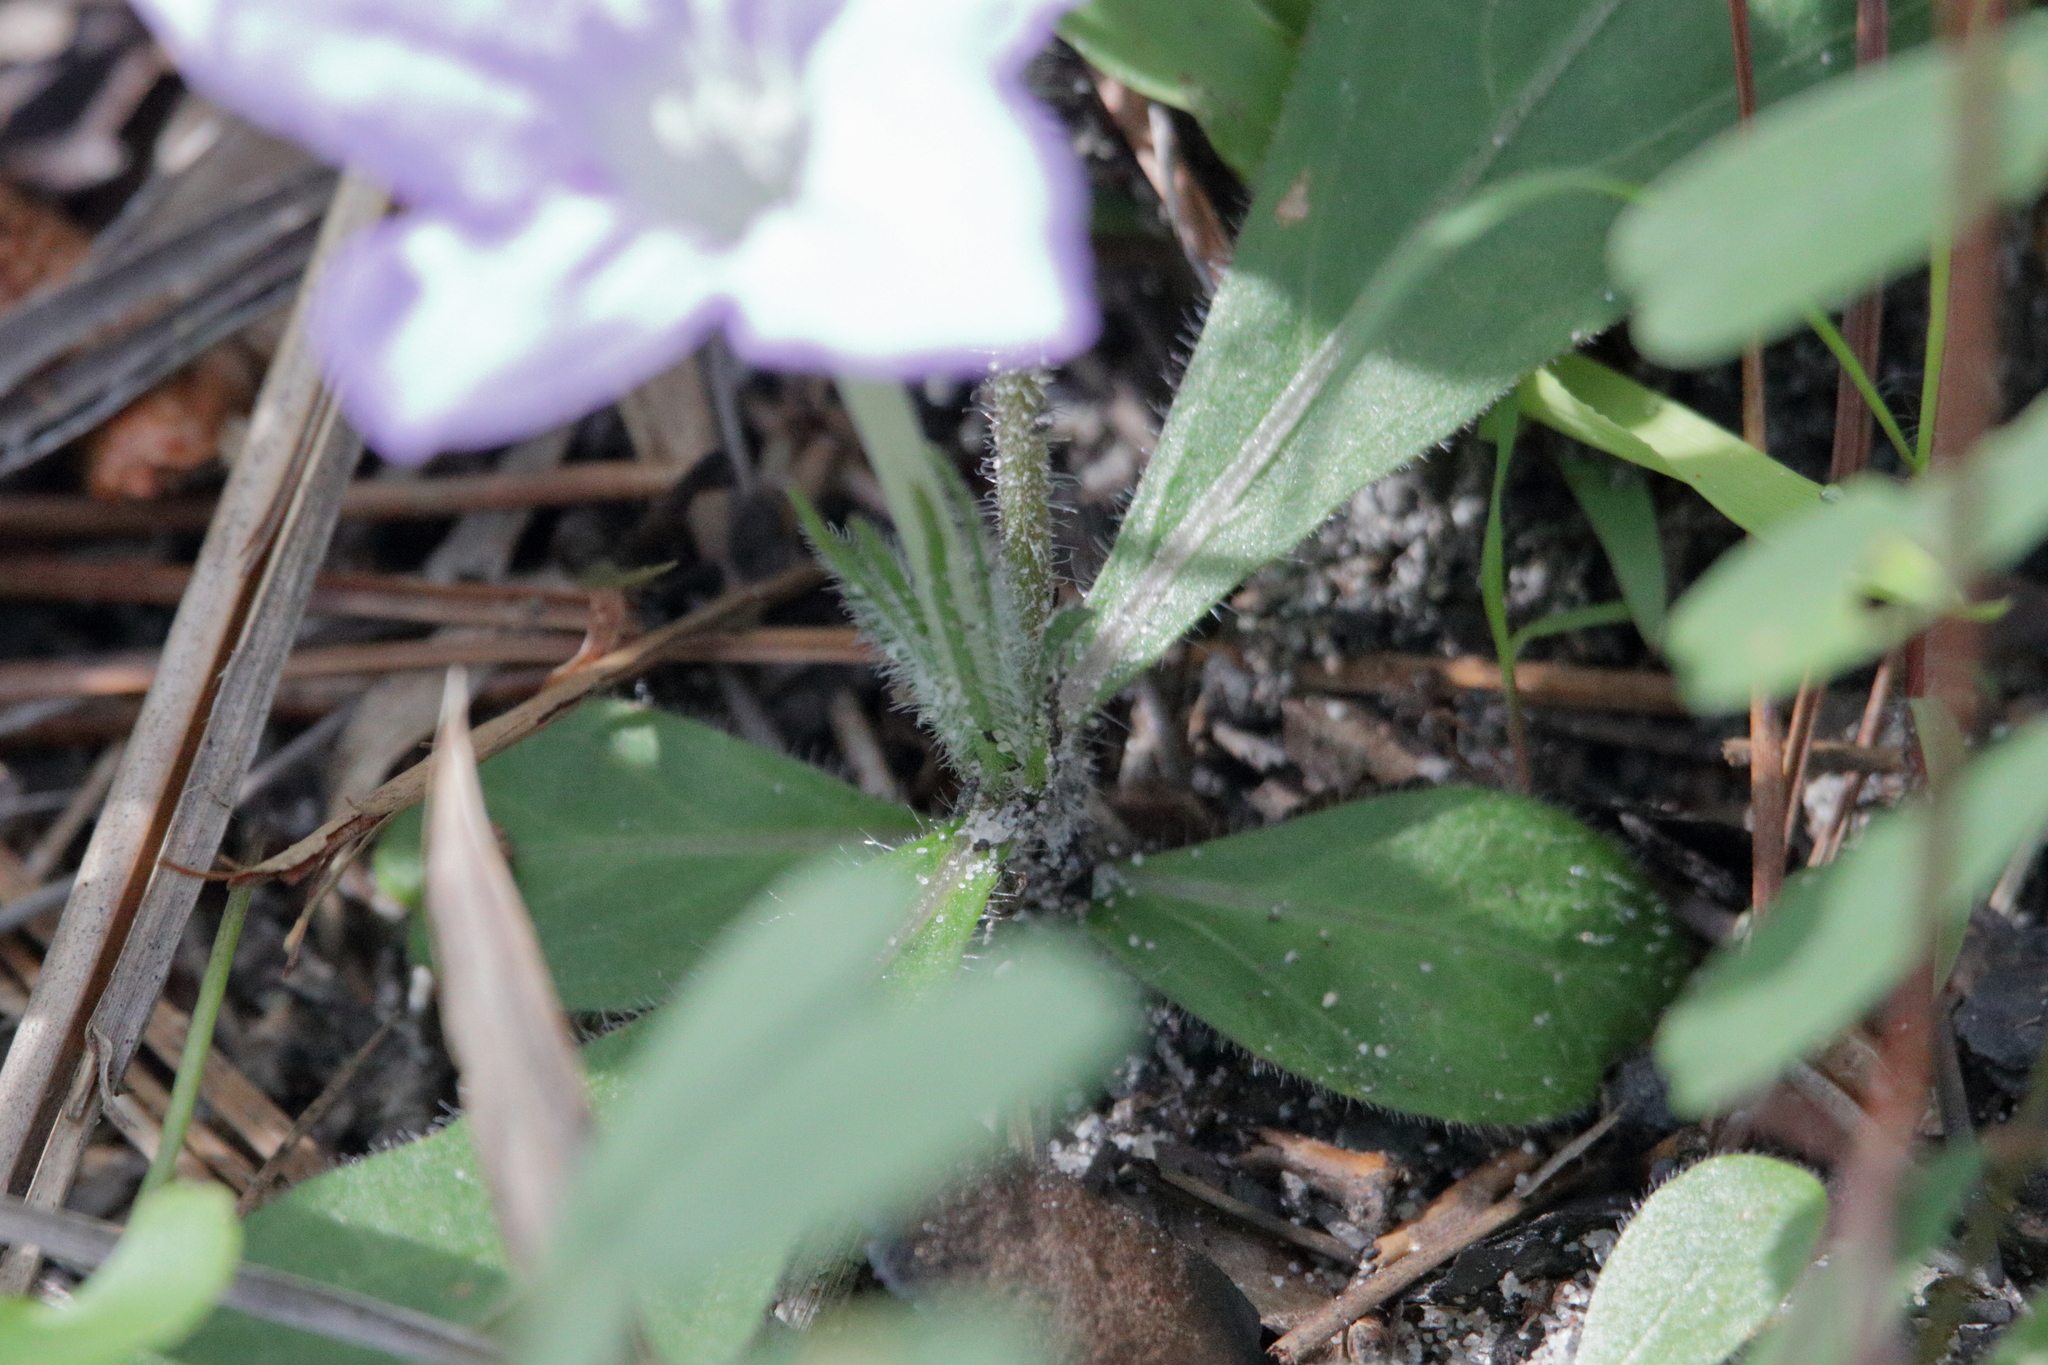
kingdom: Plantae
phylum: Tracheophyta
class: Magnoliopsida
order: Lamiales
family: Acanthaceae
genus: Ruellia
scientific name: Ruellia caroliniensis
